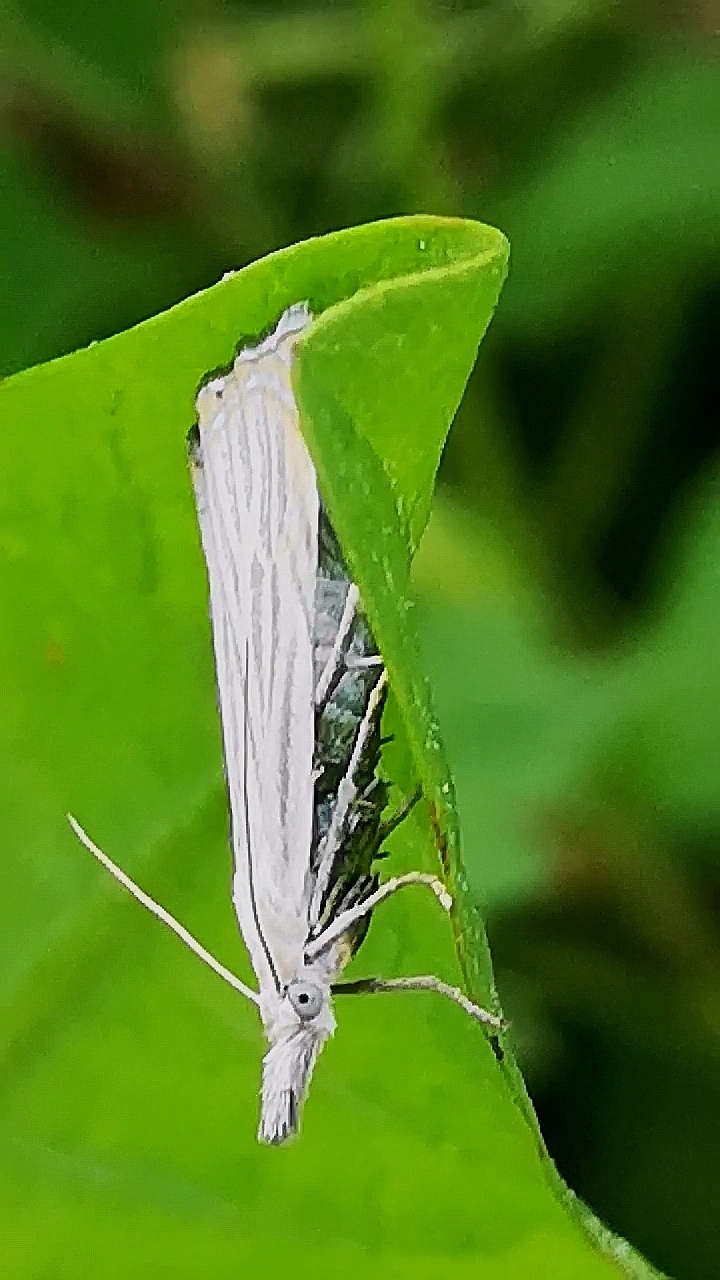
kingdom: Animalia
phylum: Arthropoda
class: Insecta
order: Lepidoptera
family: Crambidae
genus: Chrysoteuchia
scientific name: Chrysoteuchia culmella
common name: Garden grass-veneer
